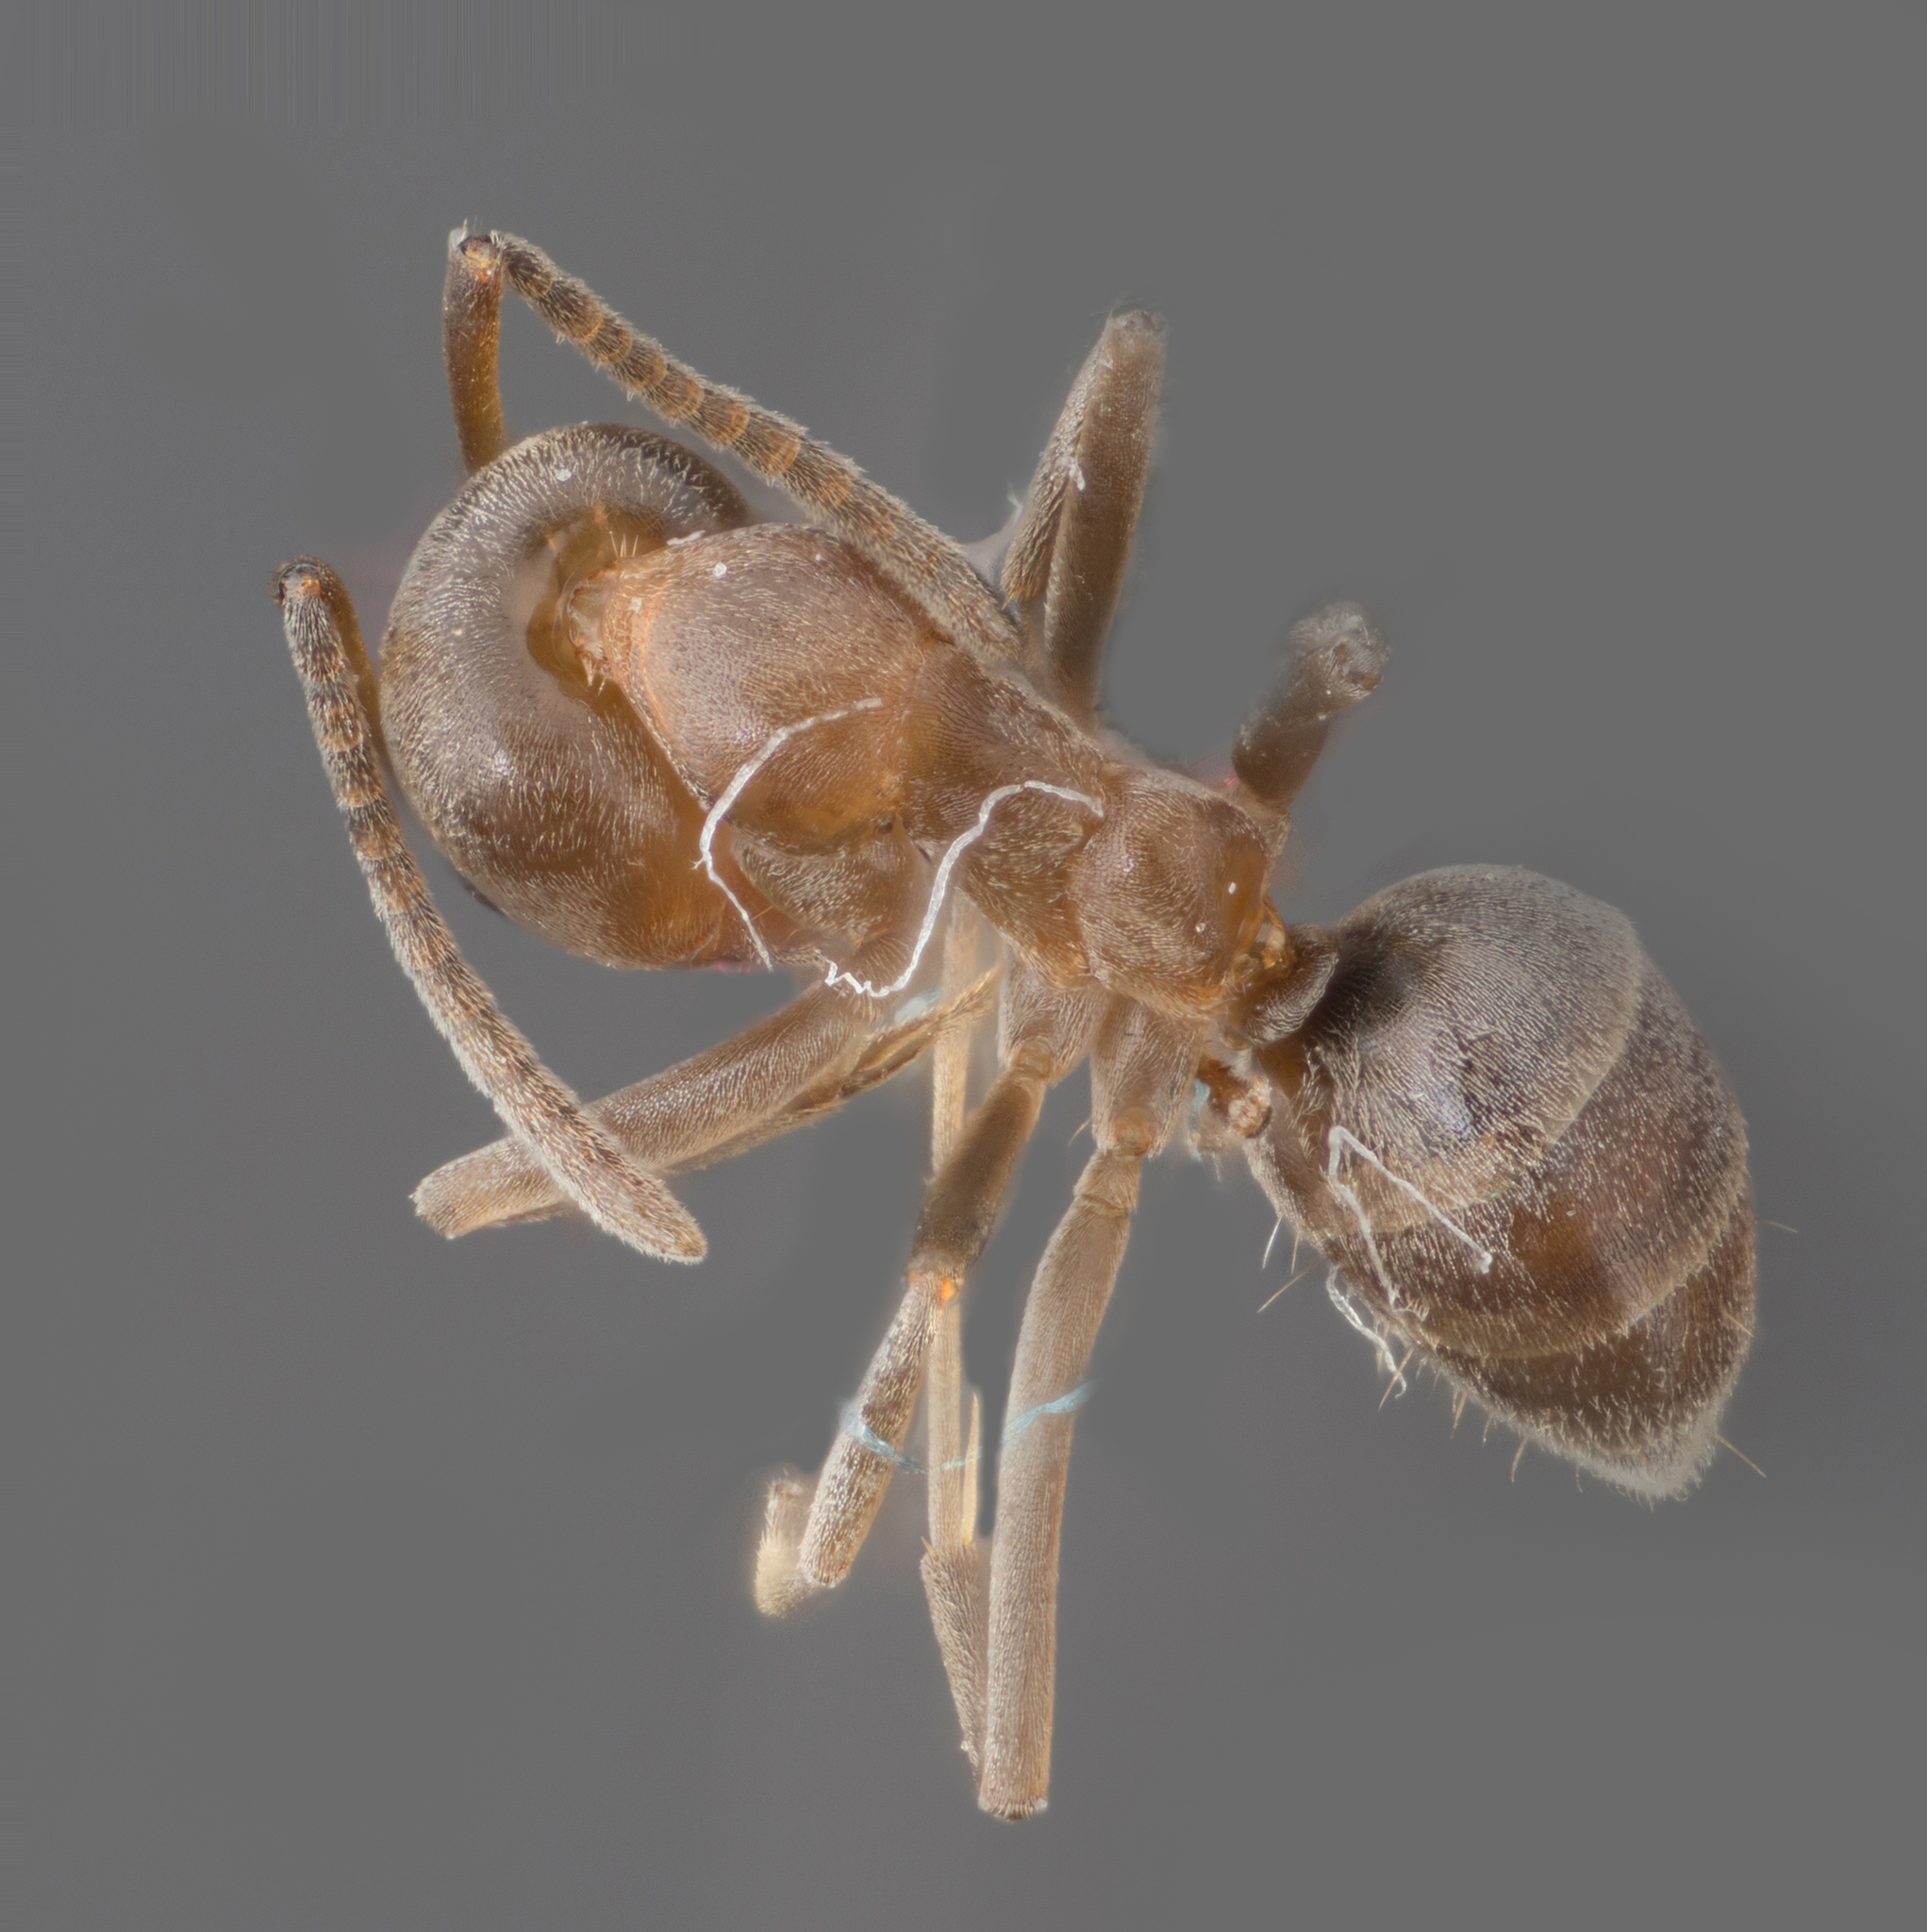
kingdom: Animalia
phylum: Arthropoda
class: Insecta
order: Hymenoptera
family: Formicidae
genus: Linepithema
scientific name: Linepithema humile
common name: Argentine ant
